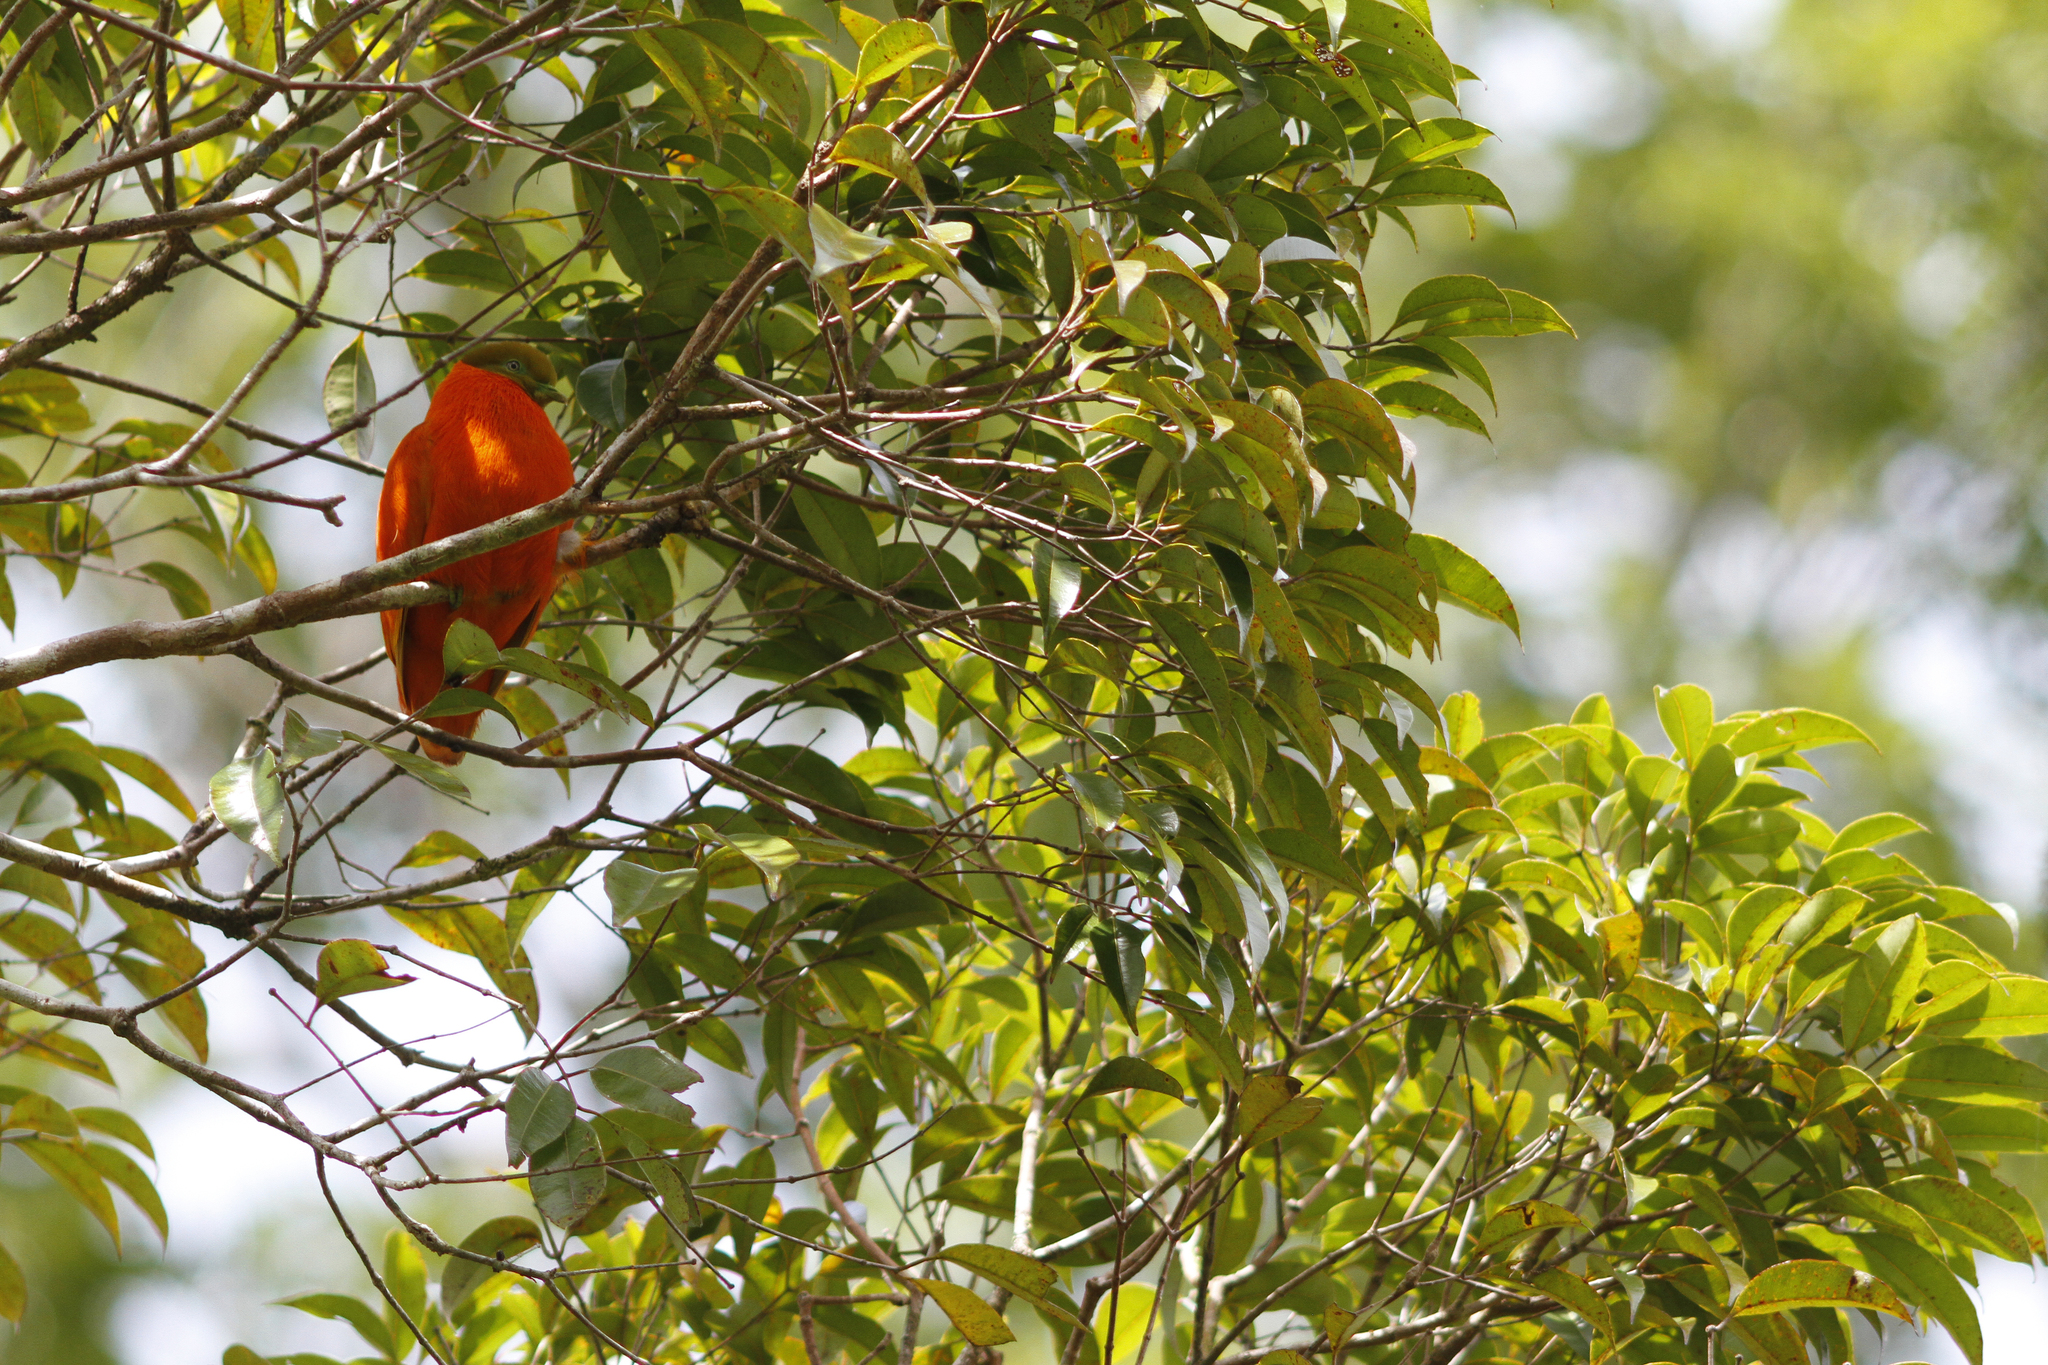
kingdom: Animalia
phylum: Chordata
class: Aves
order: Columbiformes
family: Columbidae
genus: Ptilinopus
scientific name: Ptilinopus victor
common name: Orange fruit dove
